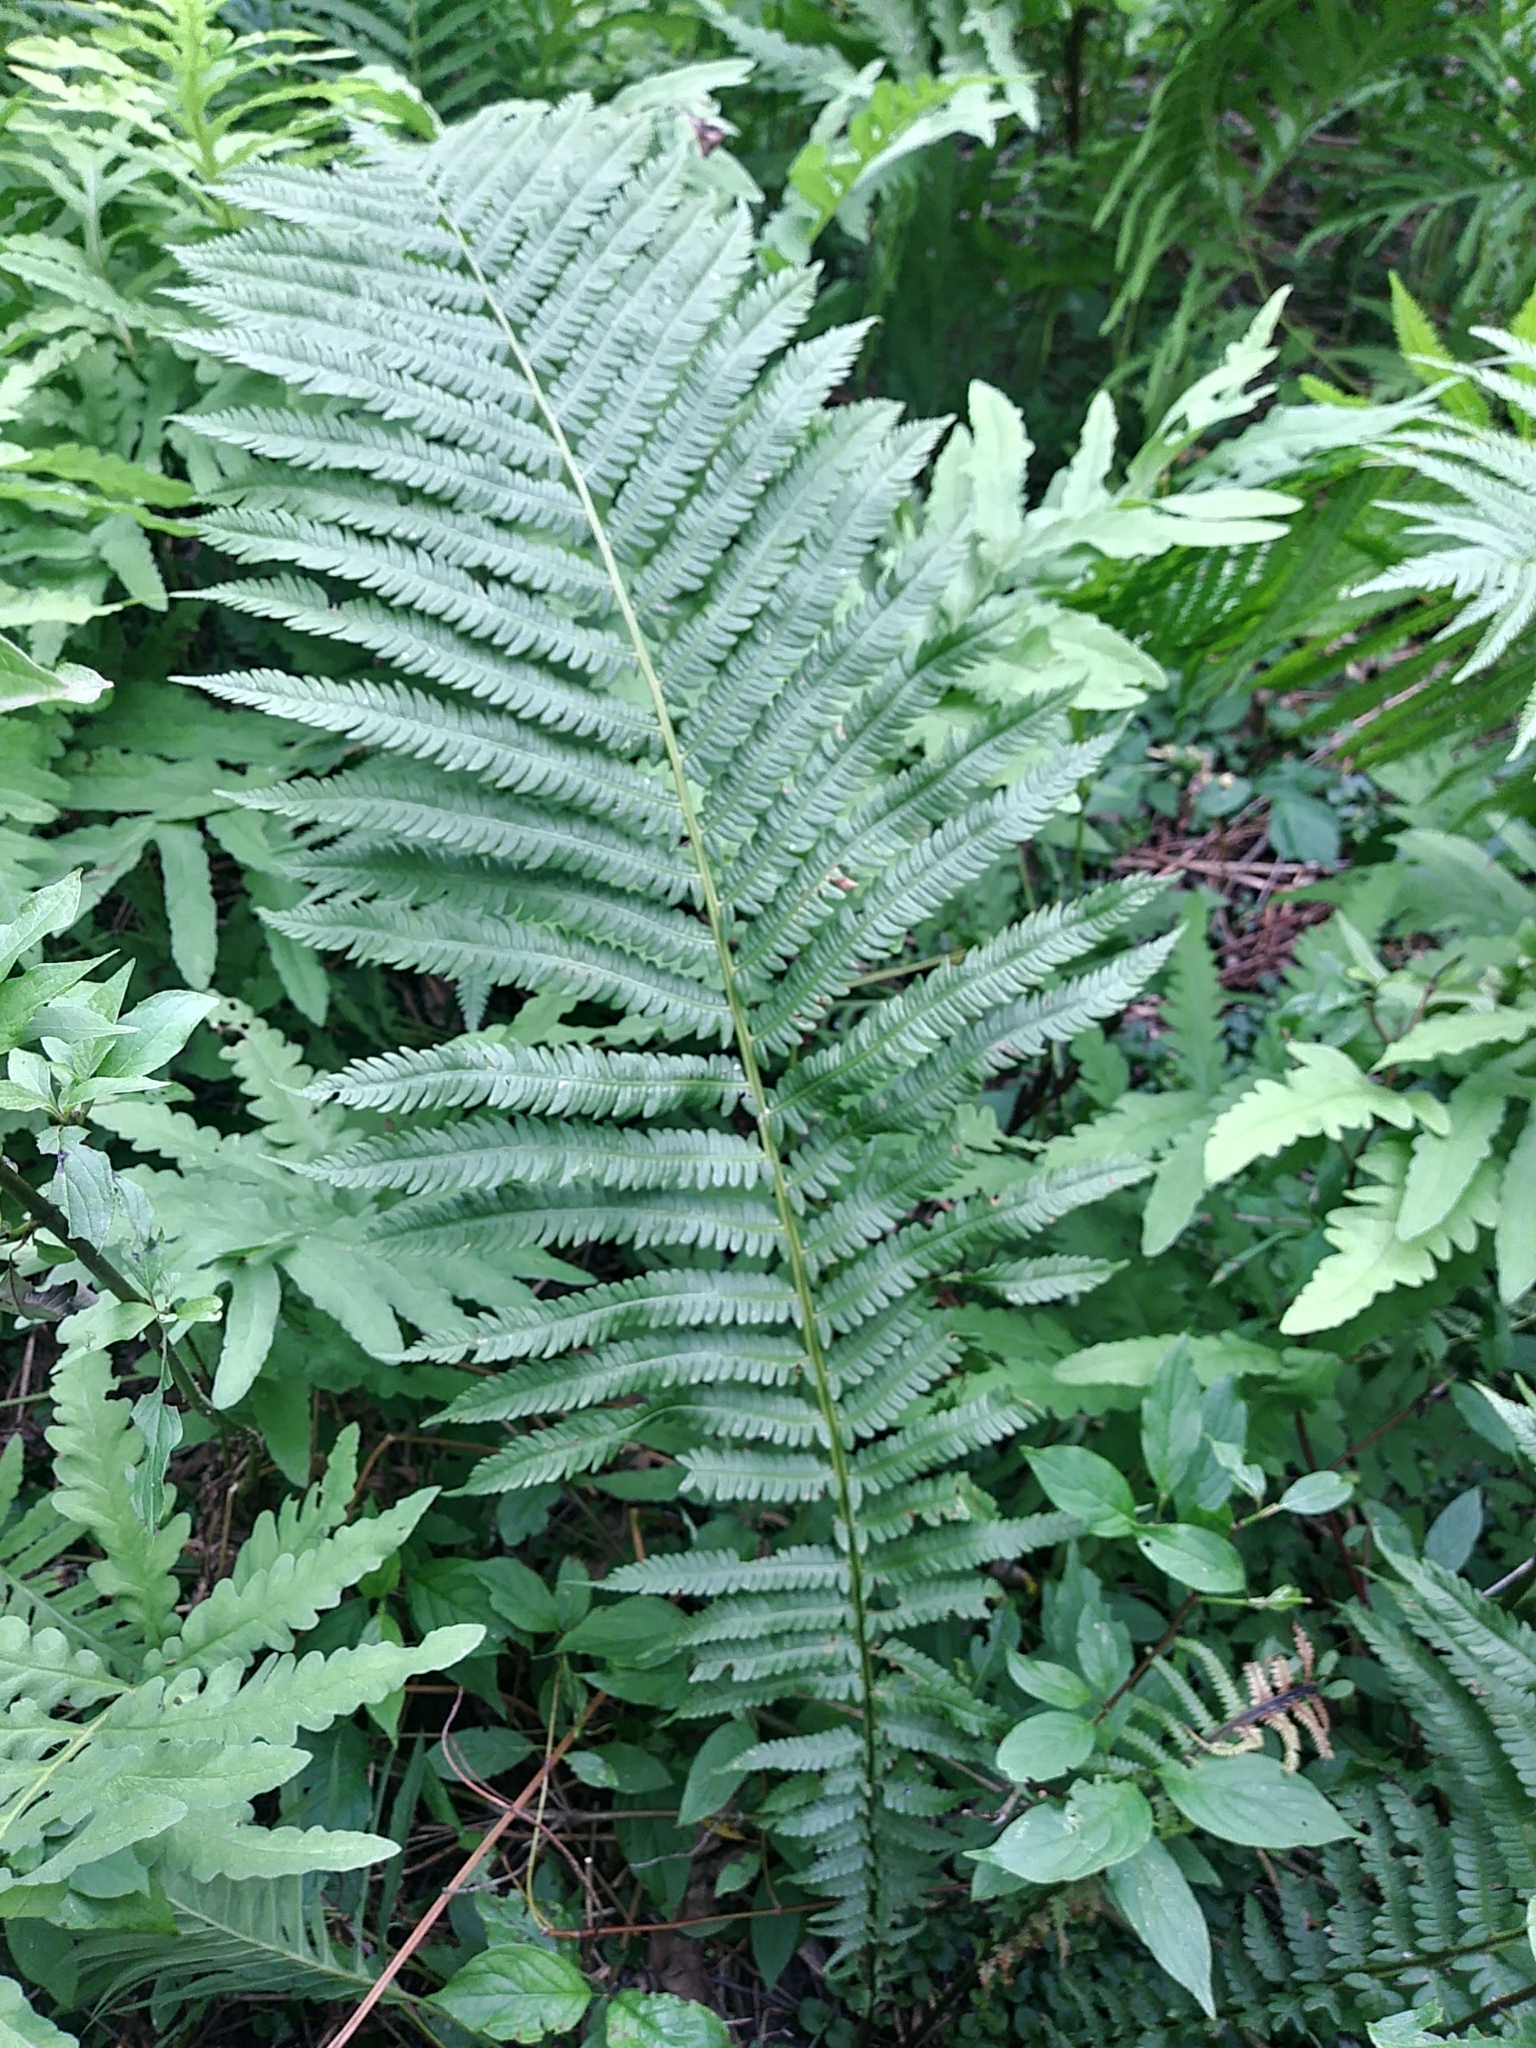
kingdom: Plantae
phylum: Tracheophyta
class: Polypodiopsida
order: Polypodiales
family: Onocleaceae
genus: Matteuccia
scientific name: Matteuccia struthiopteris
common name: Ostrich fern
